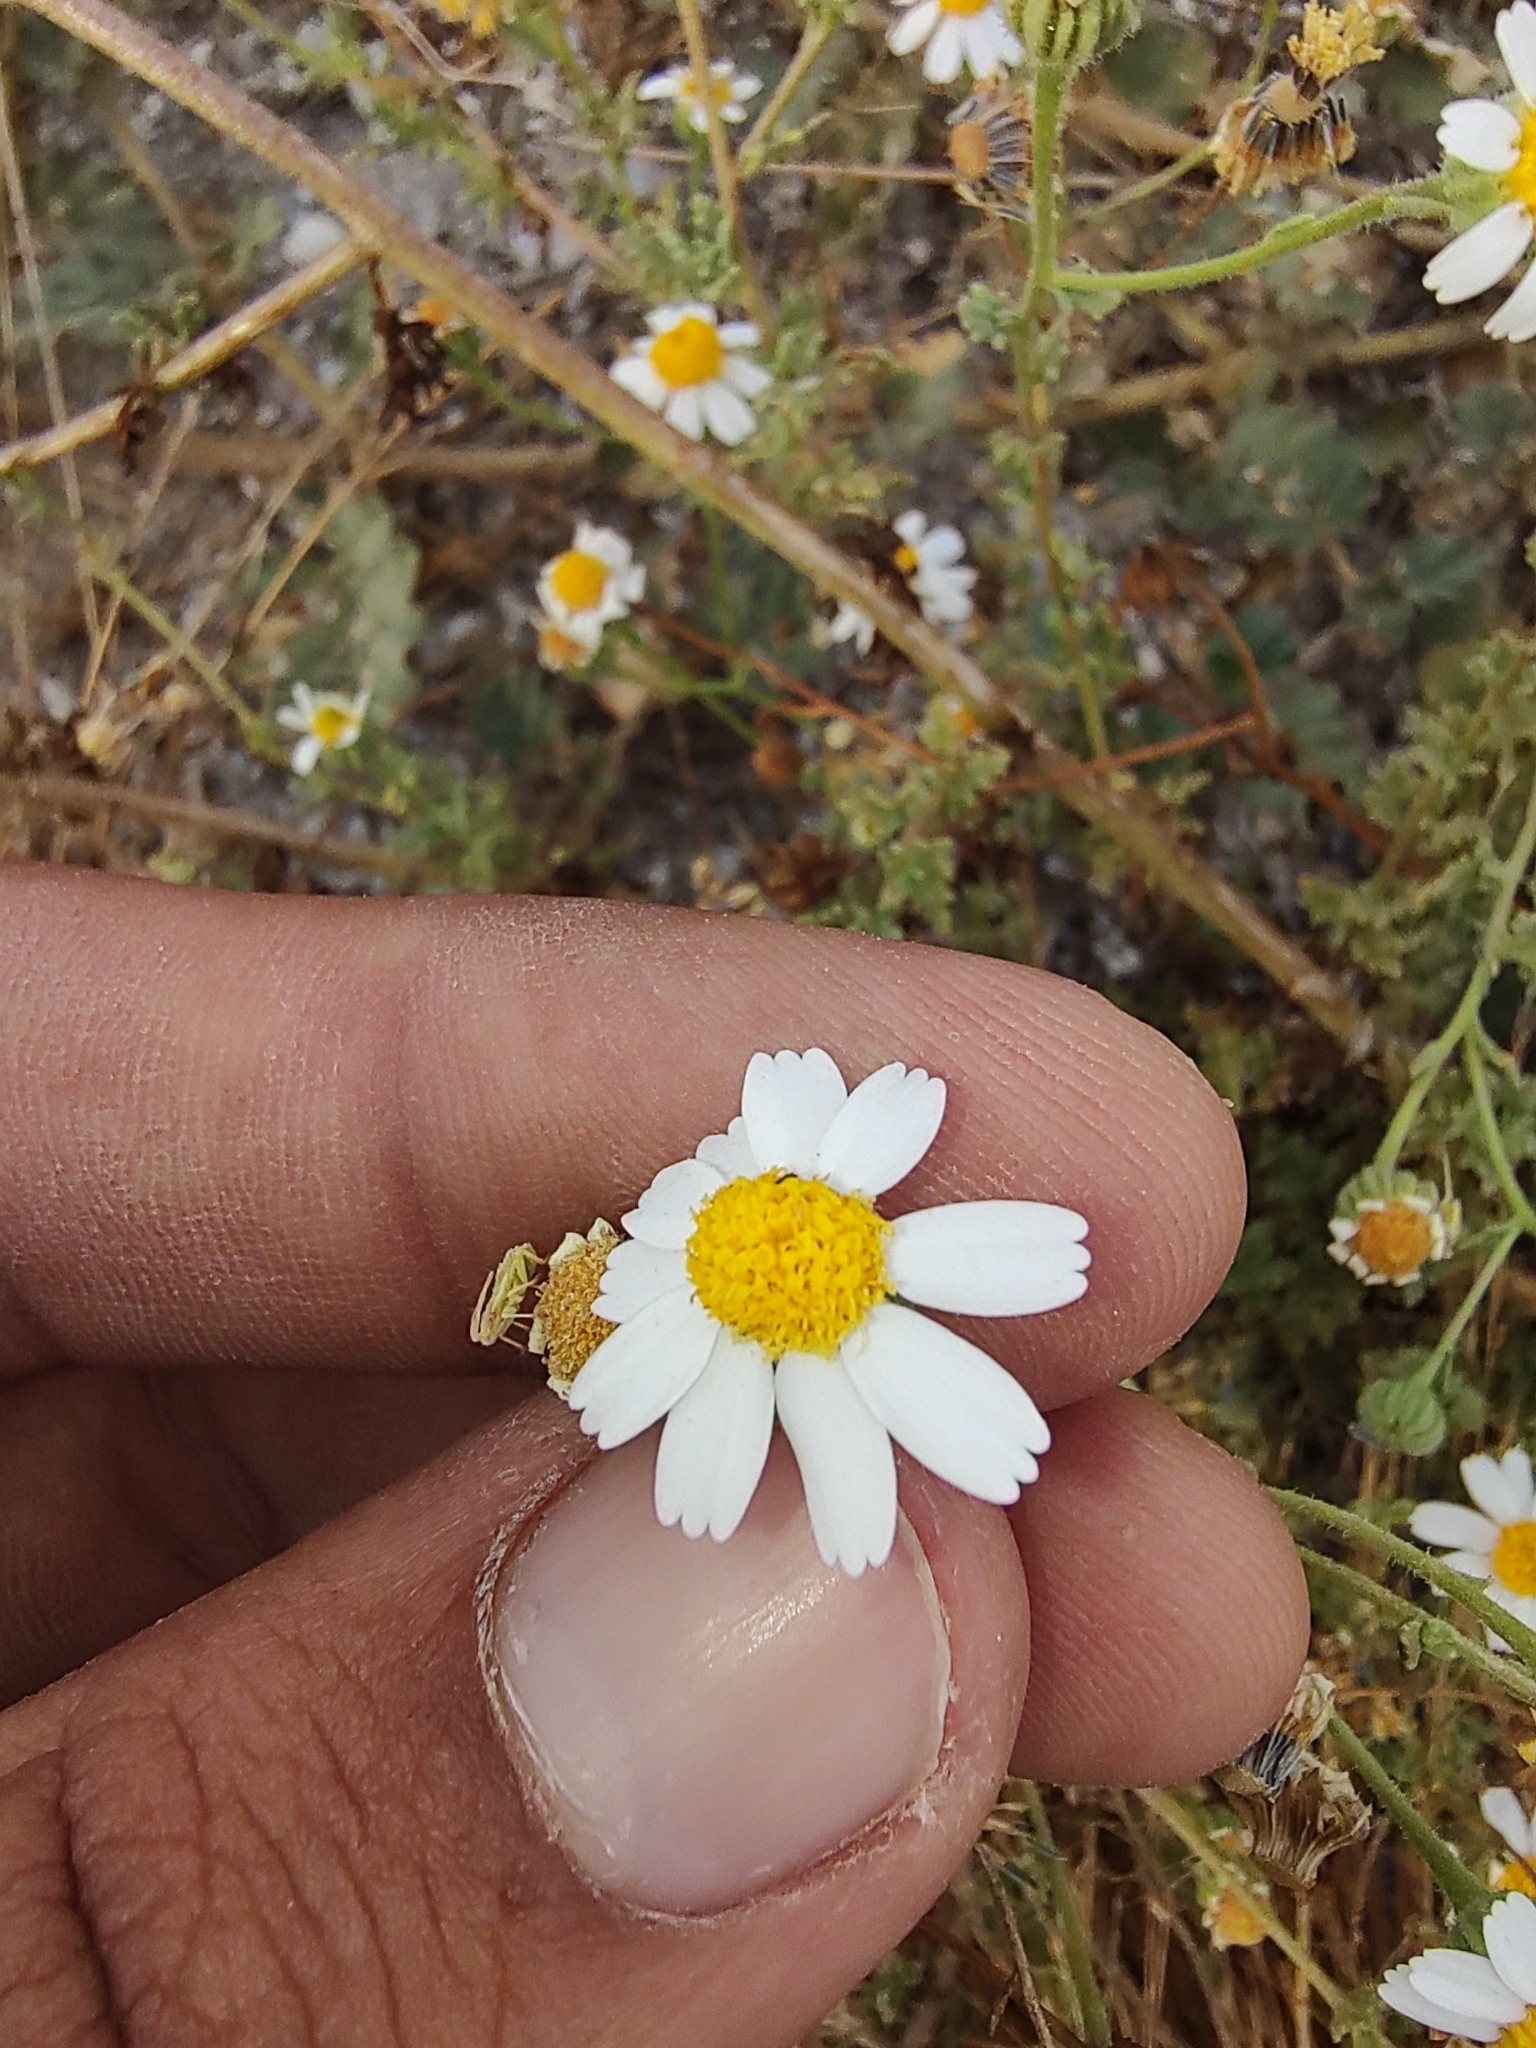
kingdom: Plantae
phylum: Tracheophyta
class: Magnoliopsida
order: Asterales
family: Asteraceae
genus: Perityle
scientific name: Perityle crassifolia
